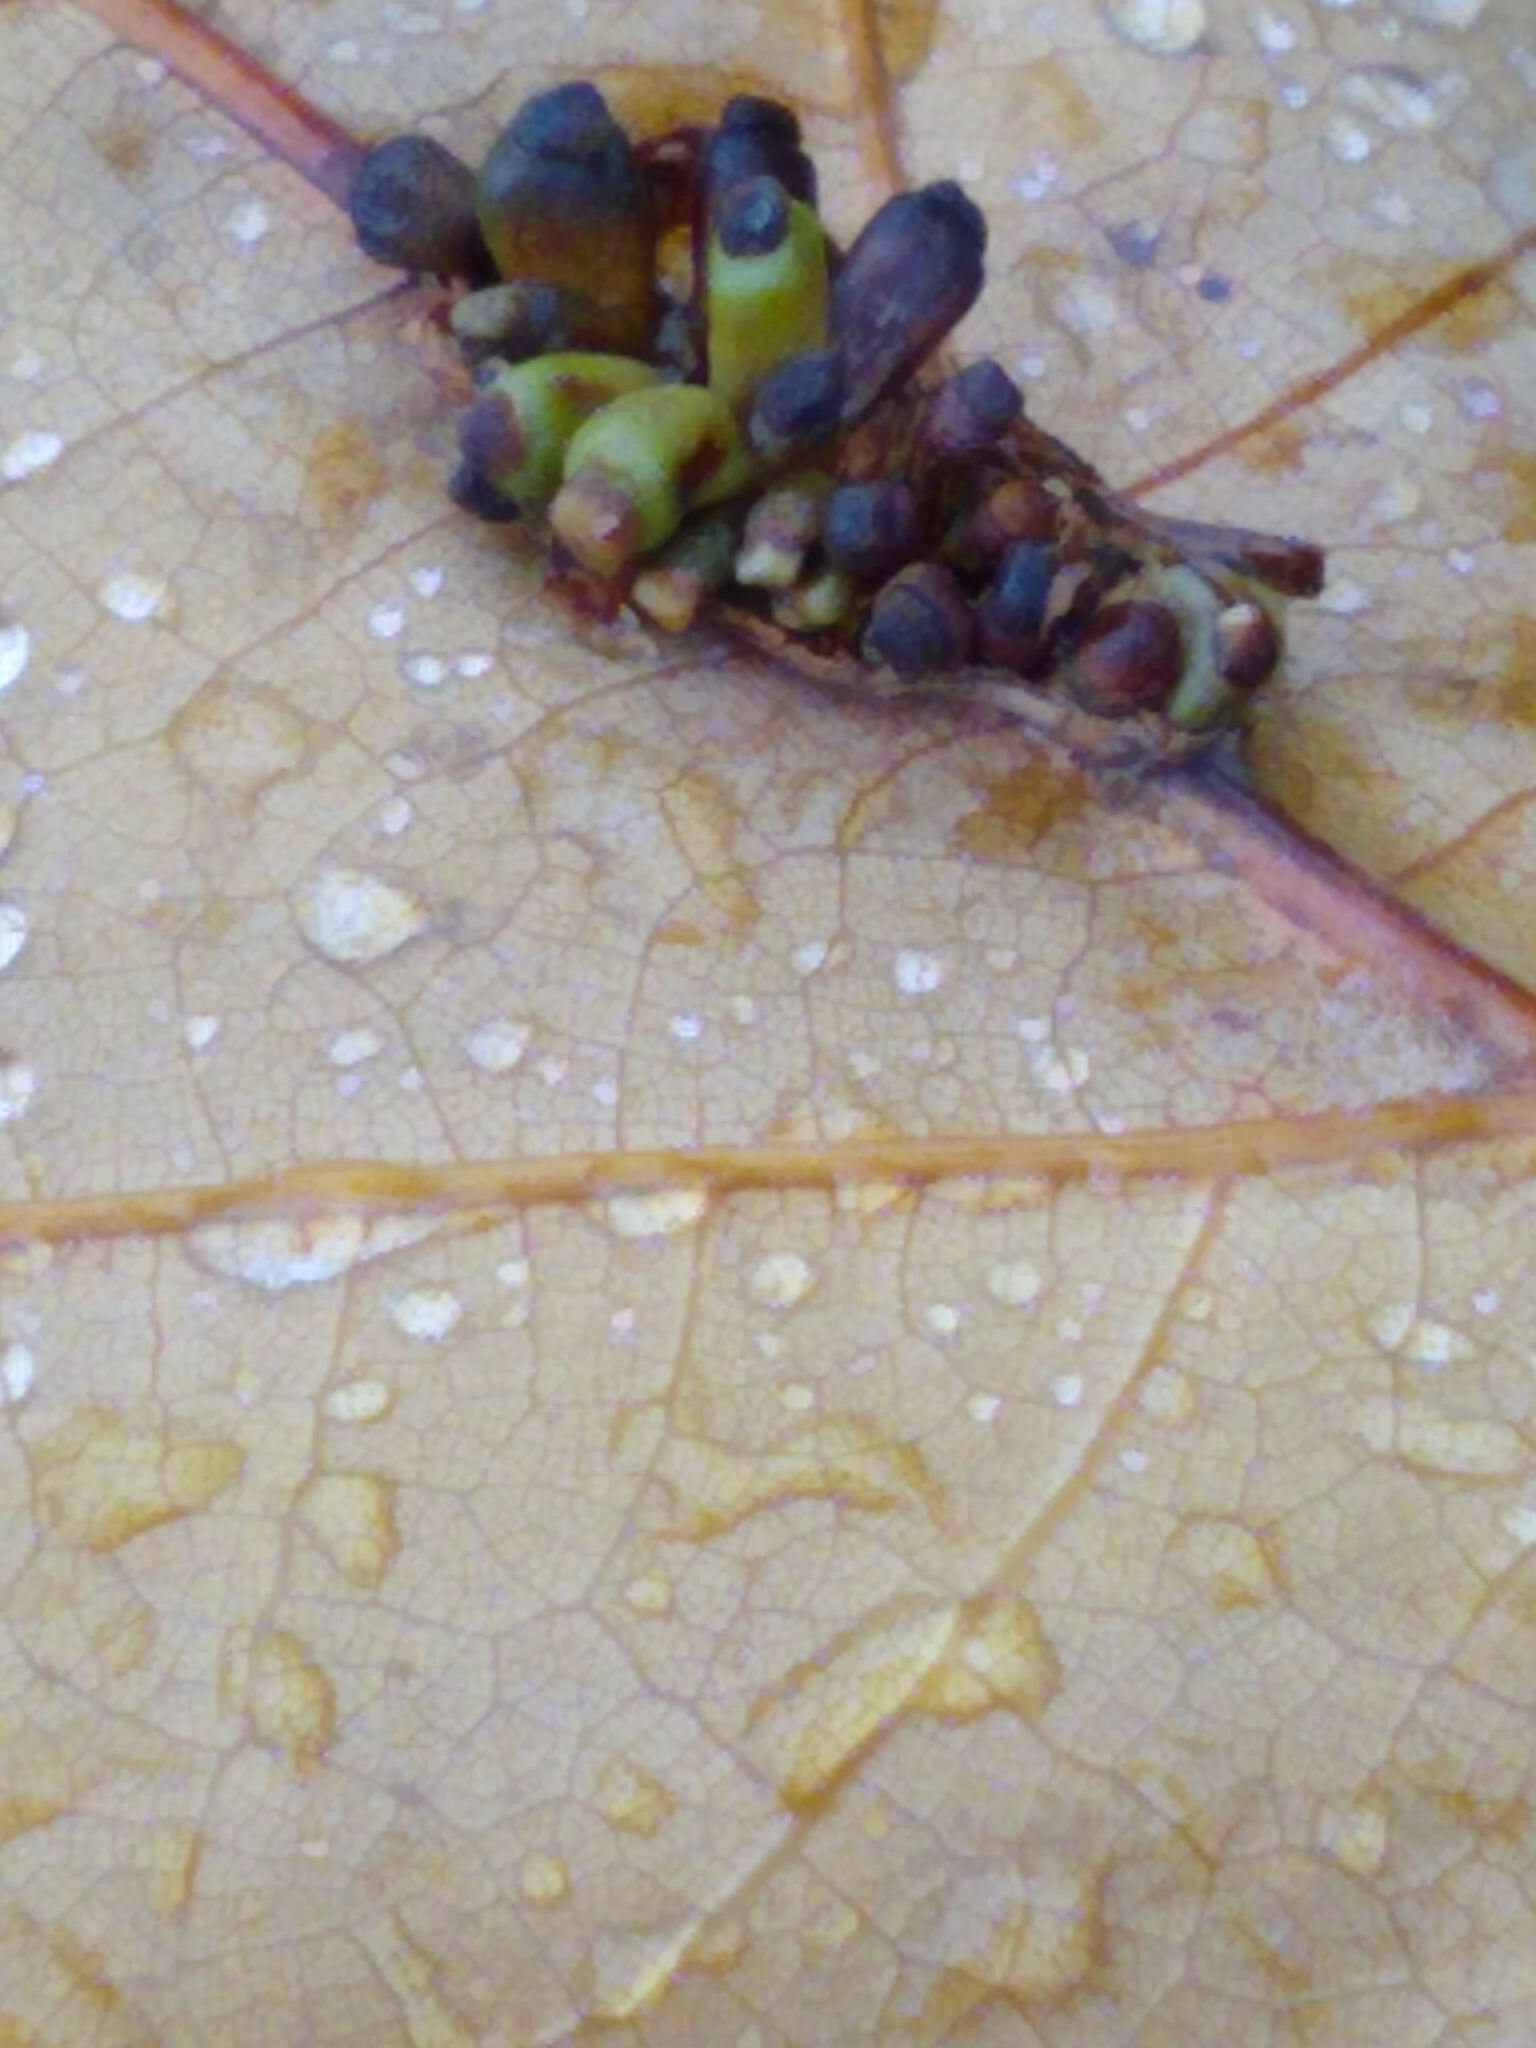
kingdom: Animalia
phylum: Arthropoda
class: Insecta
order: Hymenoptera
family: Cynipidae
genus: Kokkocynips
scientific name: Kokkocynips decidua
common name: Oak wheat gall
